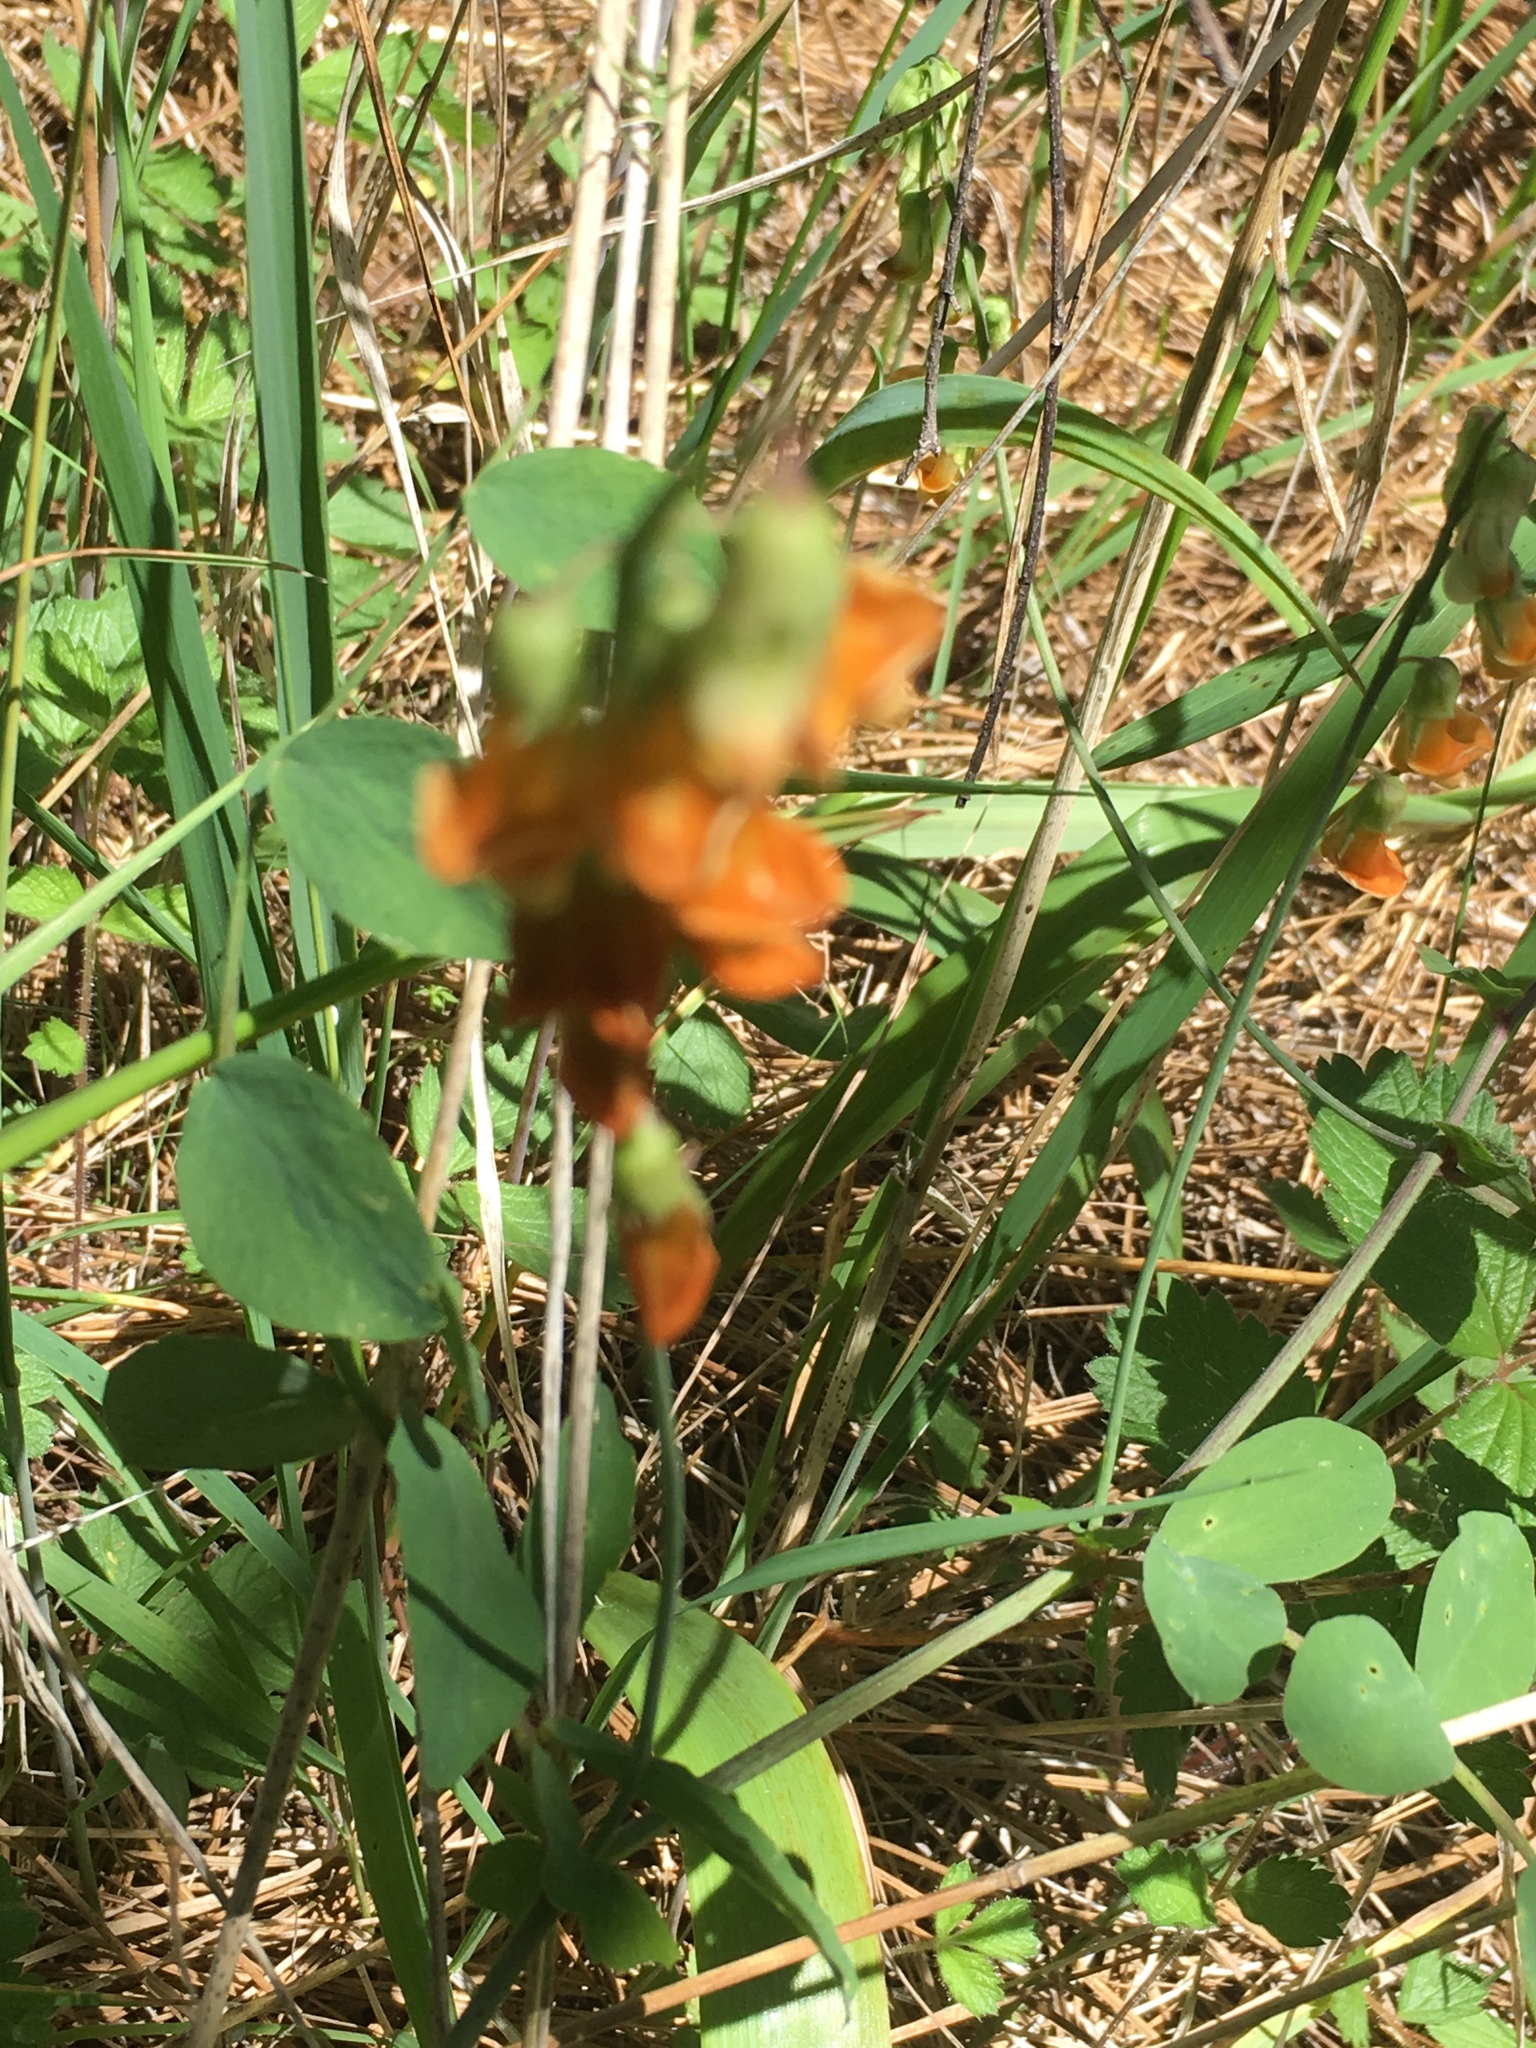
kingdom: Plantae
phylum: Tracheophyta
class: Magnoliopsida
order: Fabales
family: Fabaceae
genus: Lathyrus
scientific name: Lathyrus sulphureus
